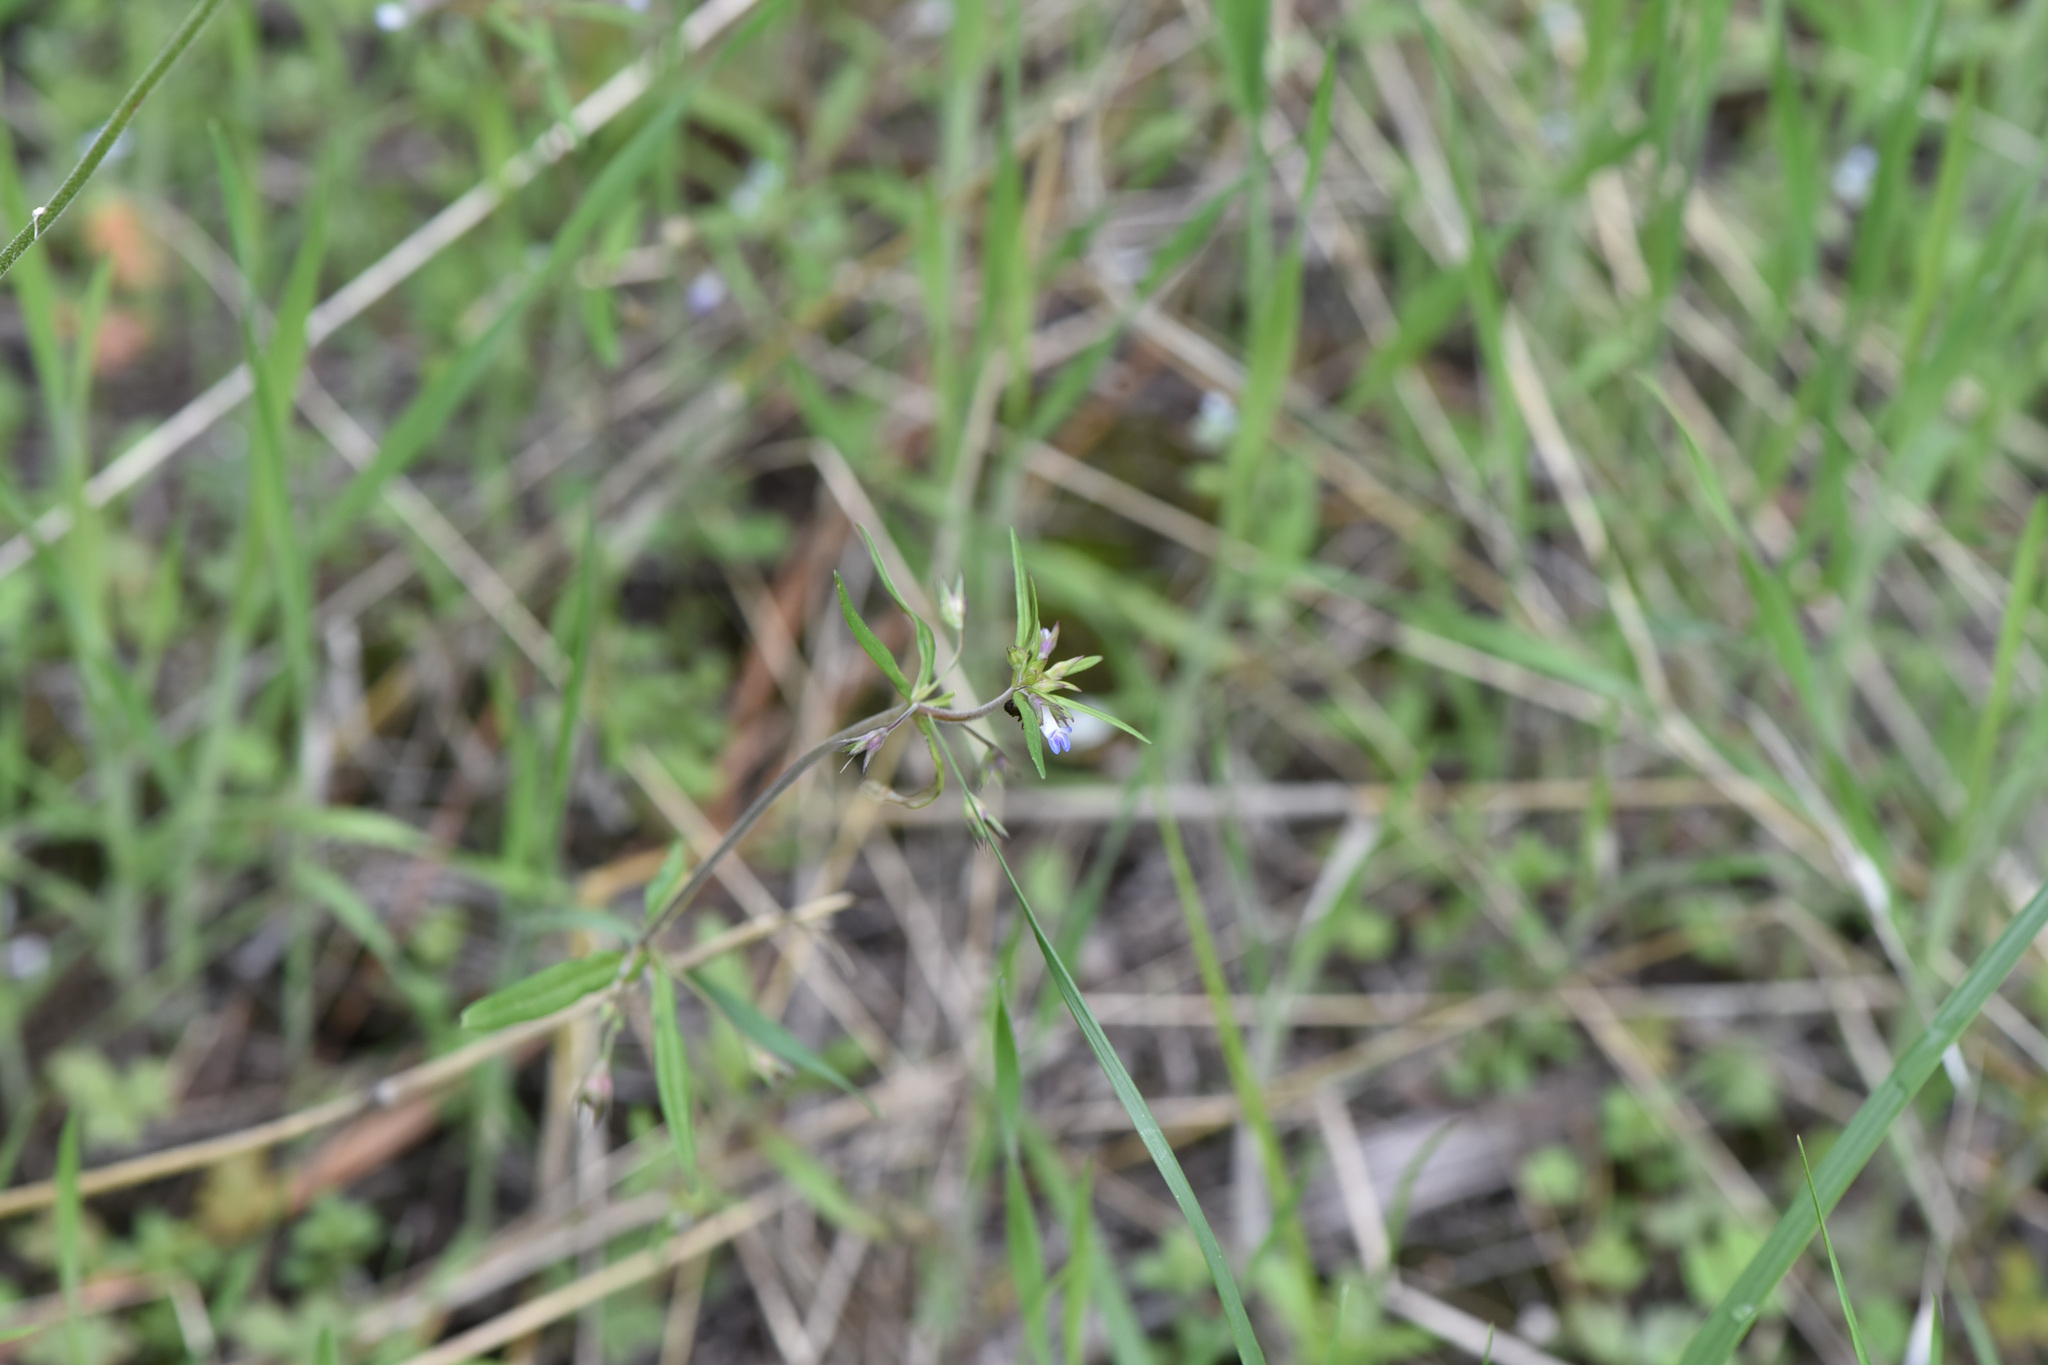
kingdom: Plantae
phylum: Tracheophyta
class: Magnoliopsida
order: Lamiales
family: Plantaginaceae
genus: Collinsia
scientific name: Collinsia parviflora
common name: Blue-lips
